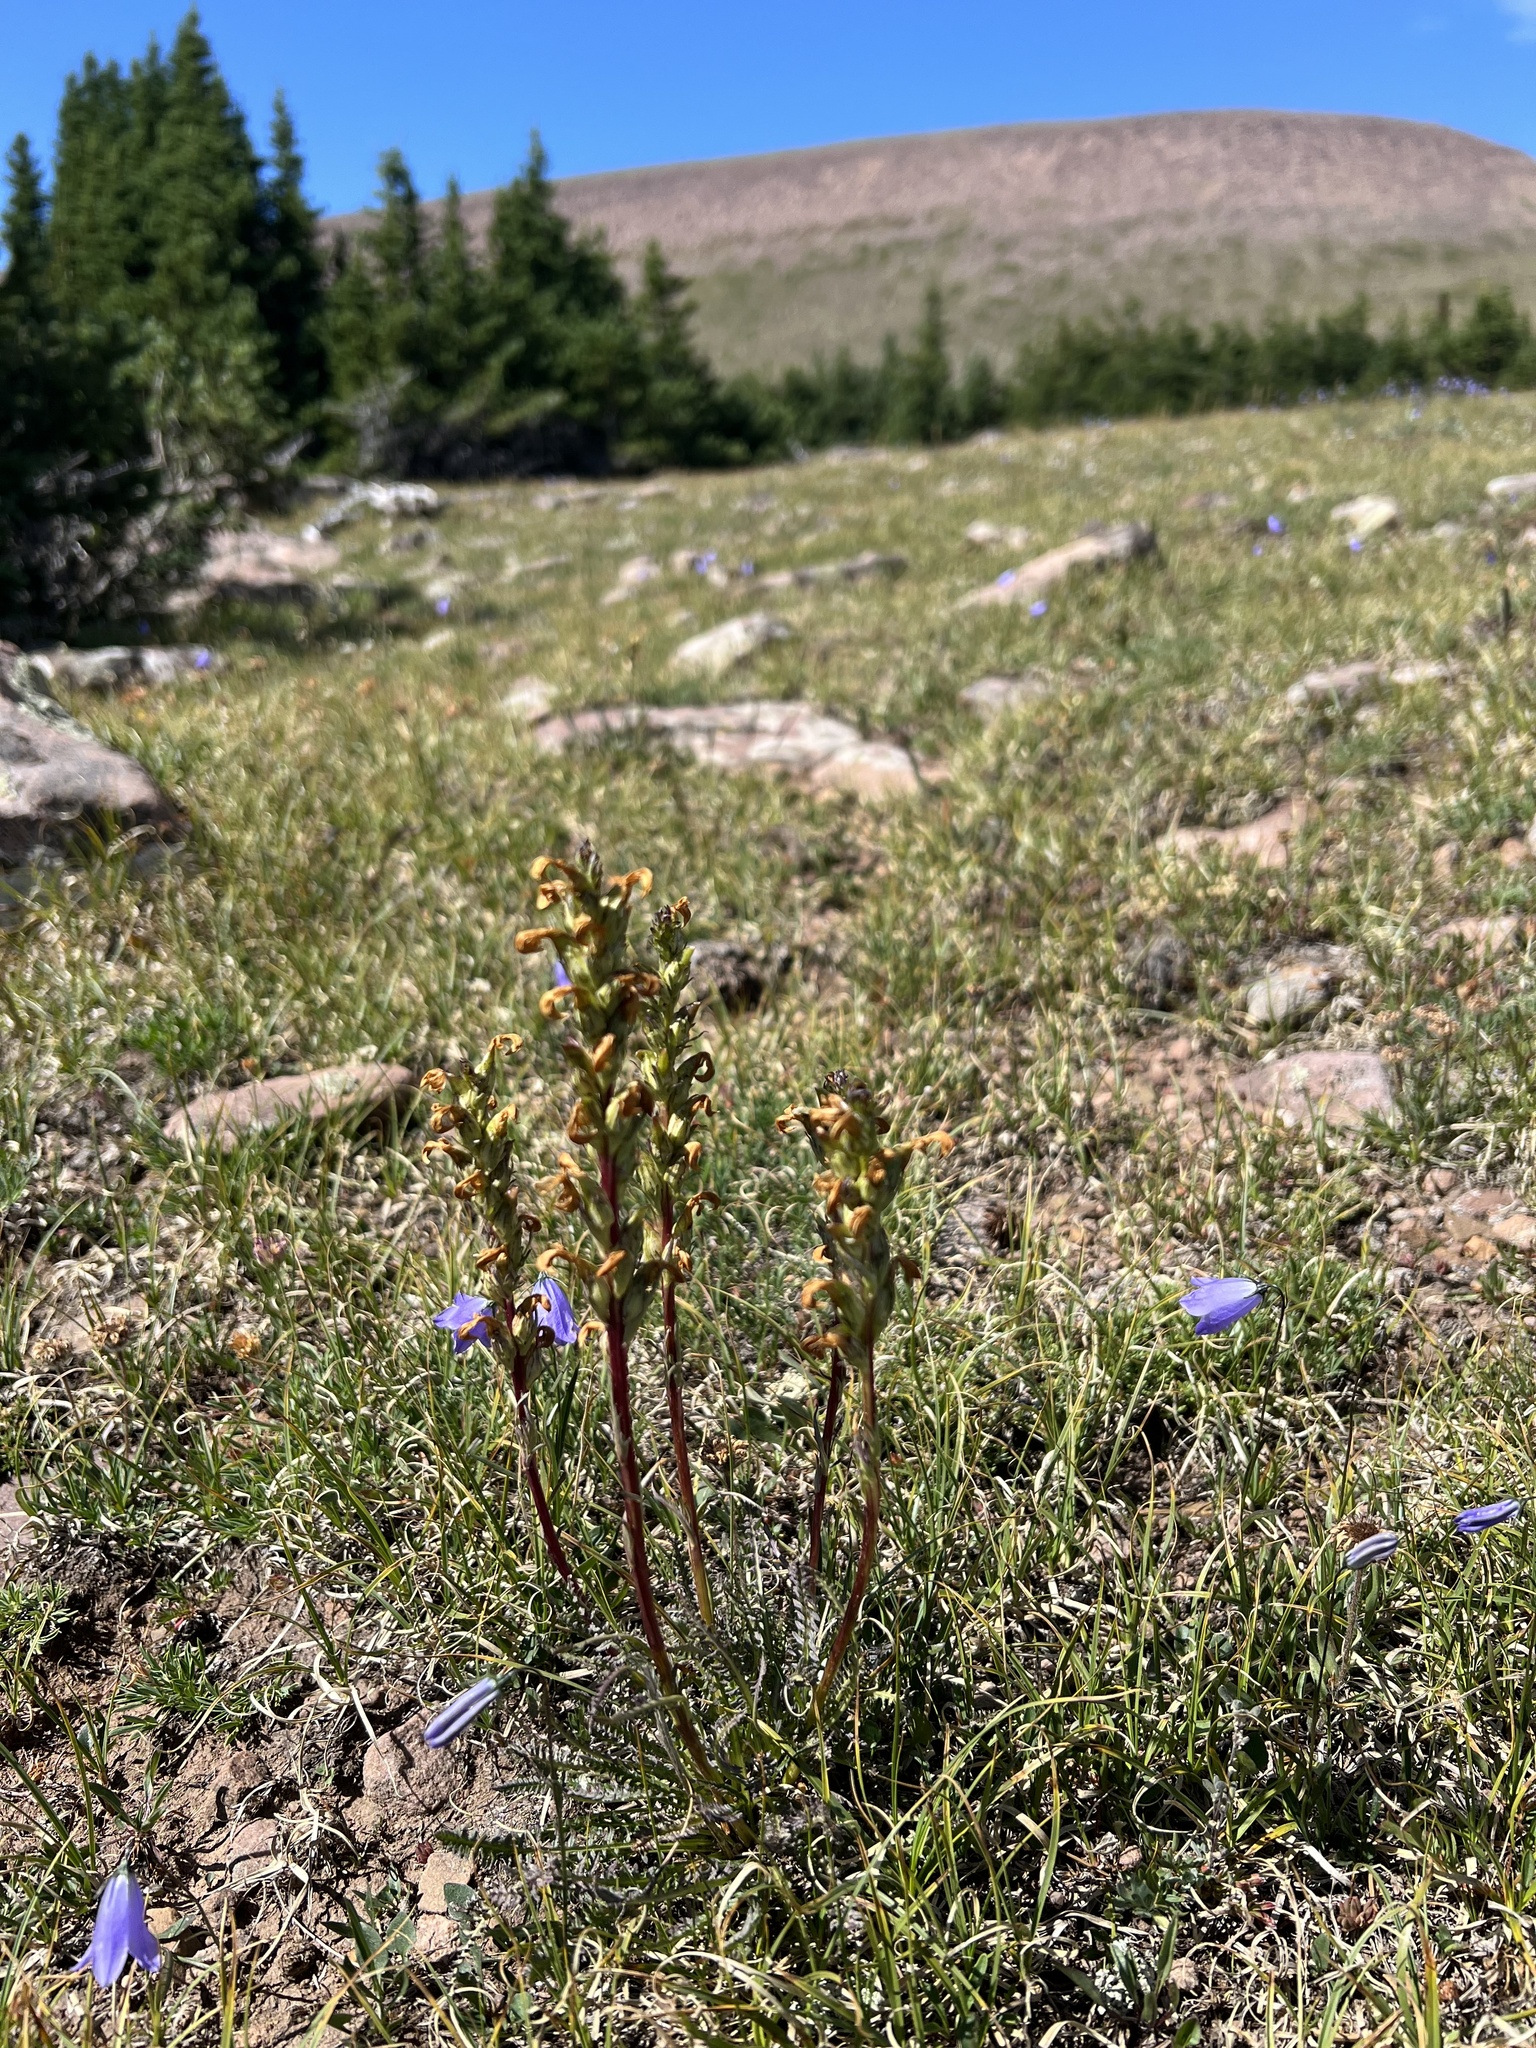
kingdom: Plantae
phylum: Tracheophyta
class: Magnoliopsida
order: Lamiales
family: Orobanchaceae
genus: Pedicularis
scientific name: Pedicularis parryi
